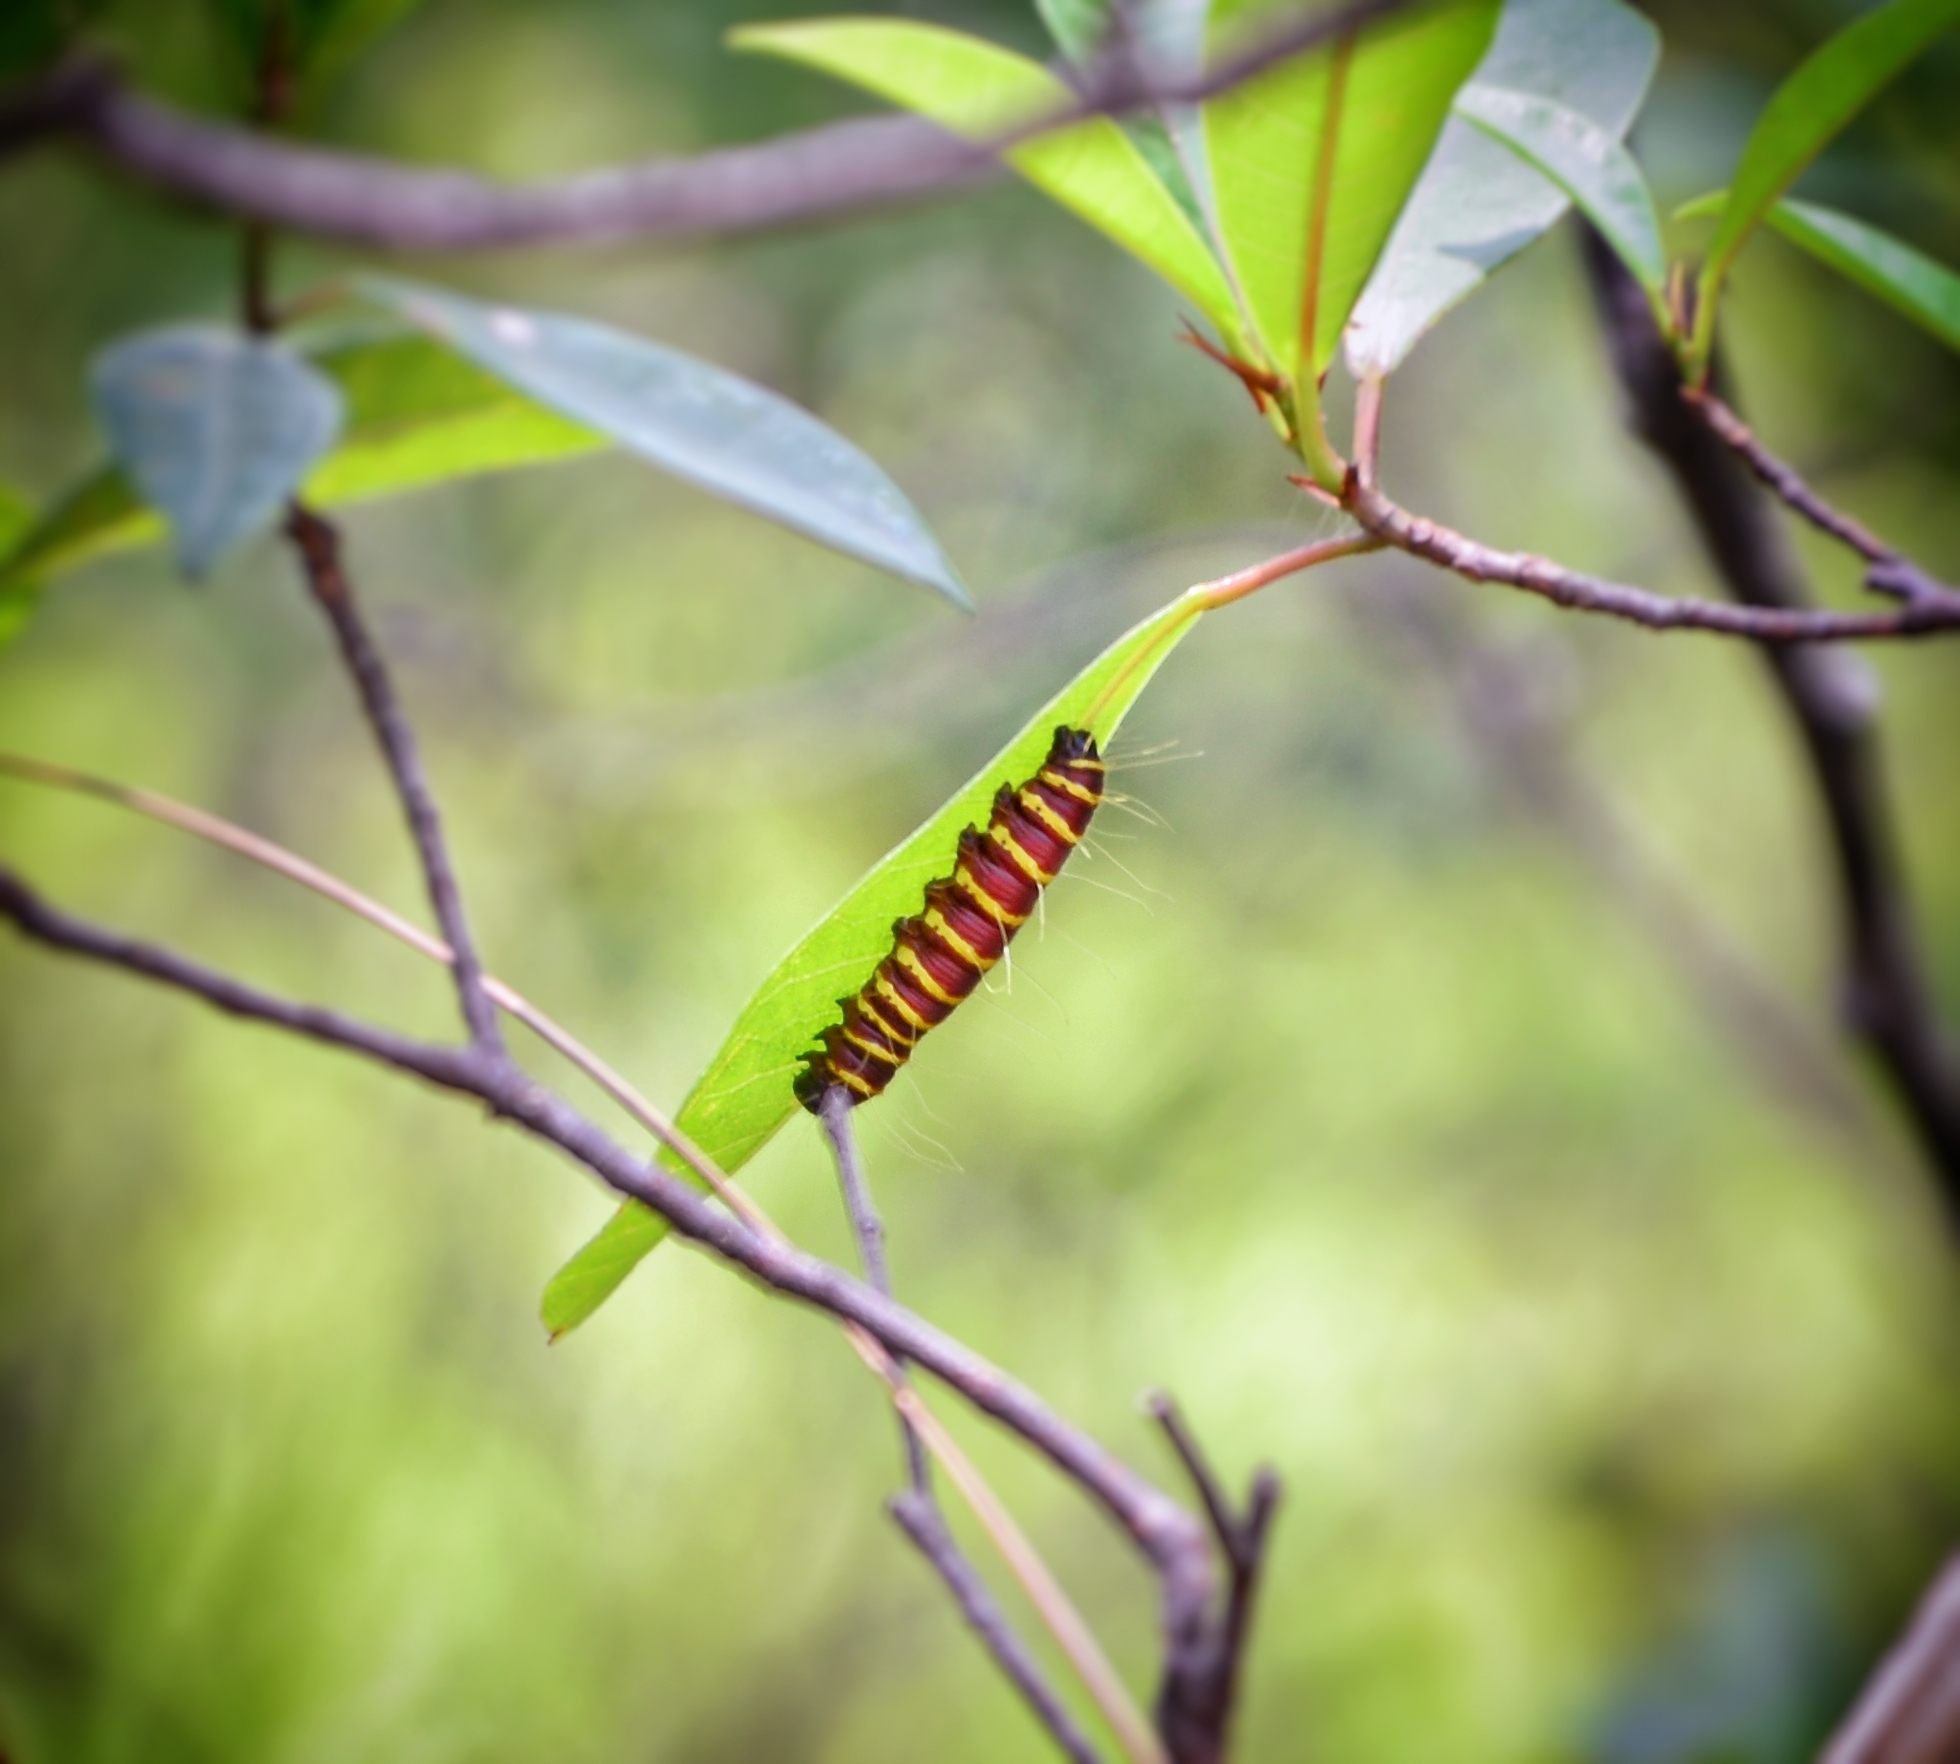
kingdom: Animalia
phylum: Arthropoda
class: Insecta
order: Lepidoptera
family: Pieridae
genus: Delias
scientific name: Delias pasithoe
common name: Red-base jezebel
